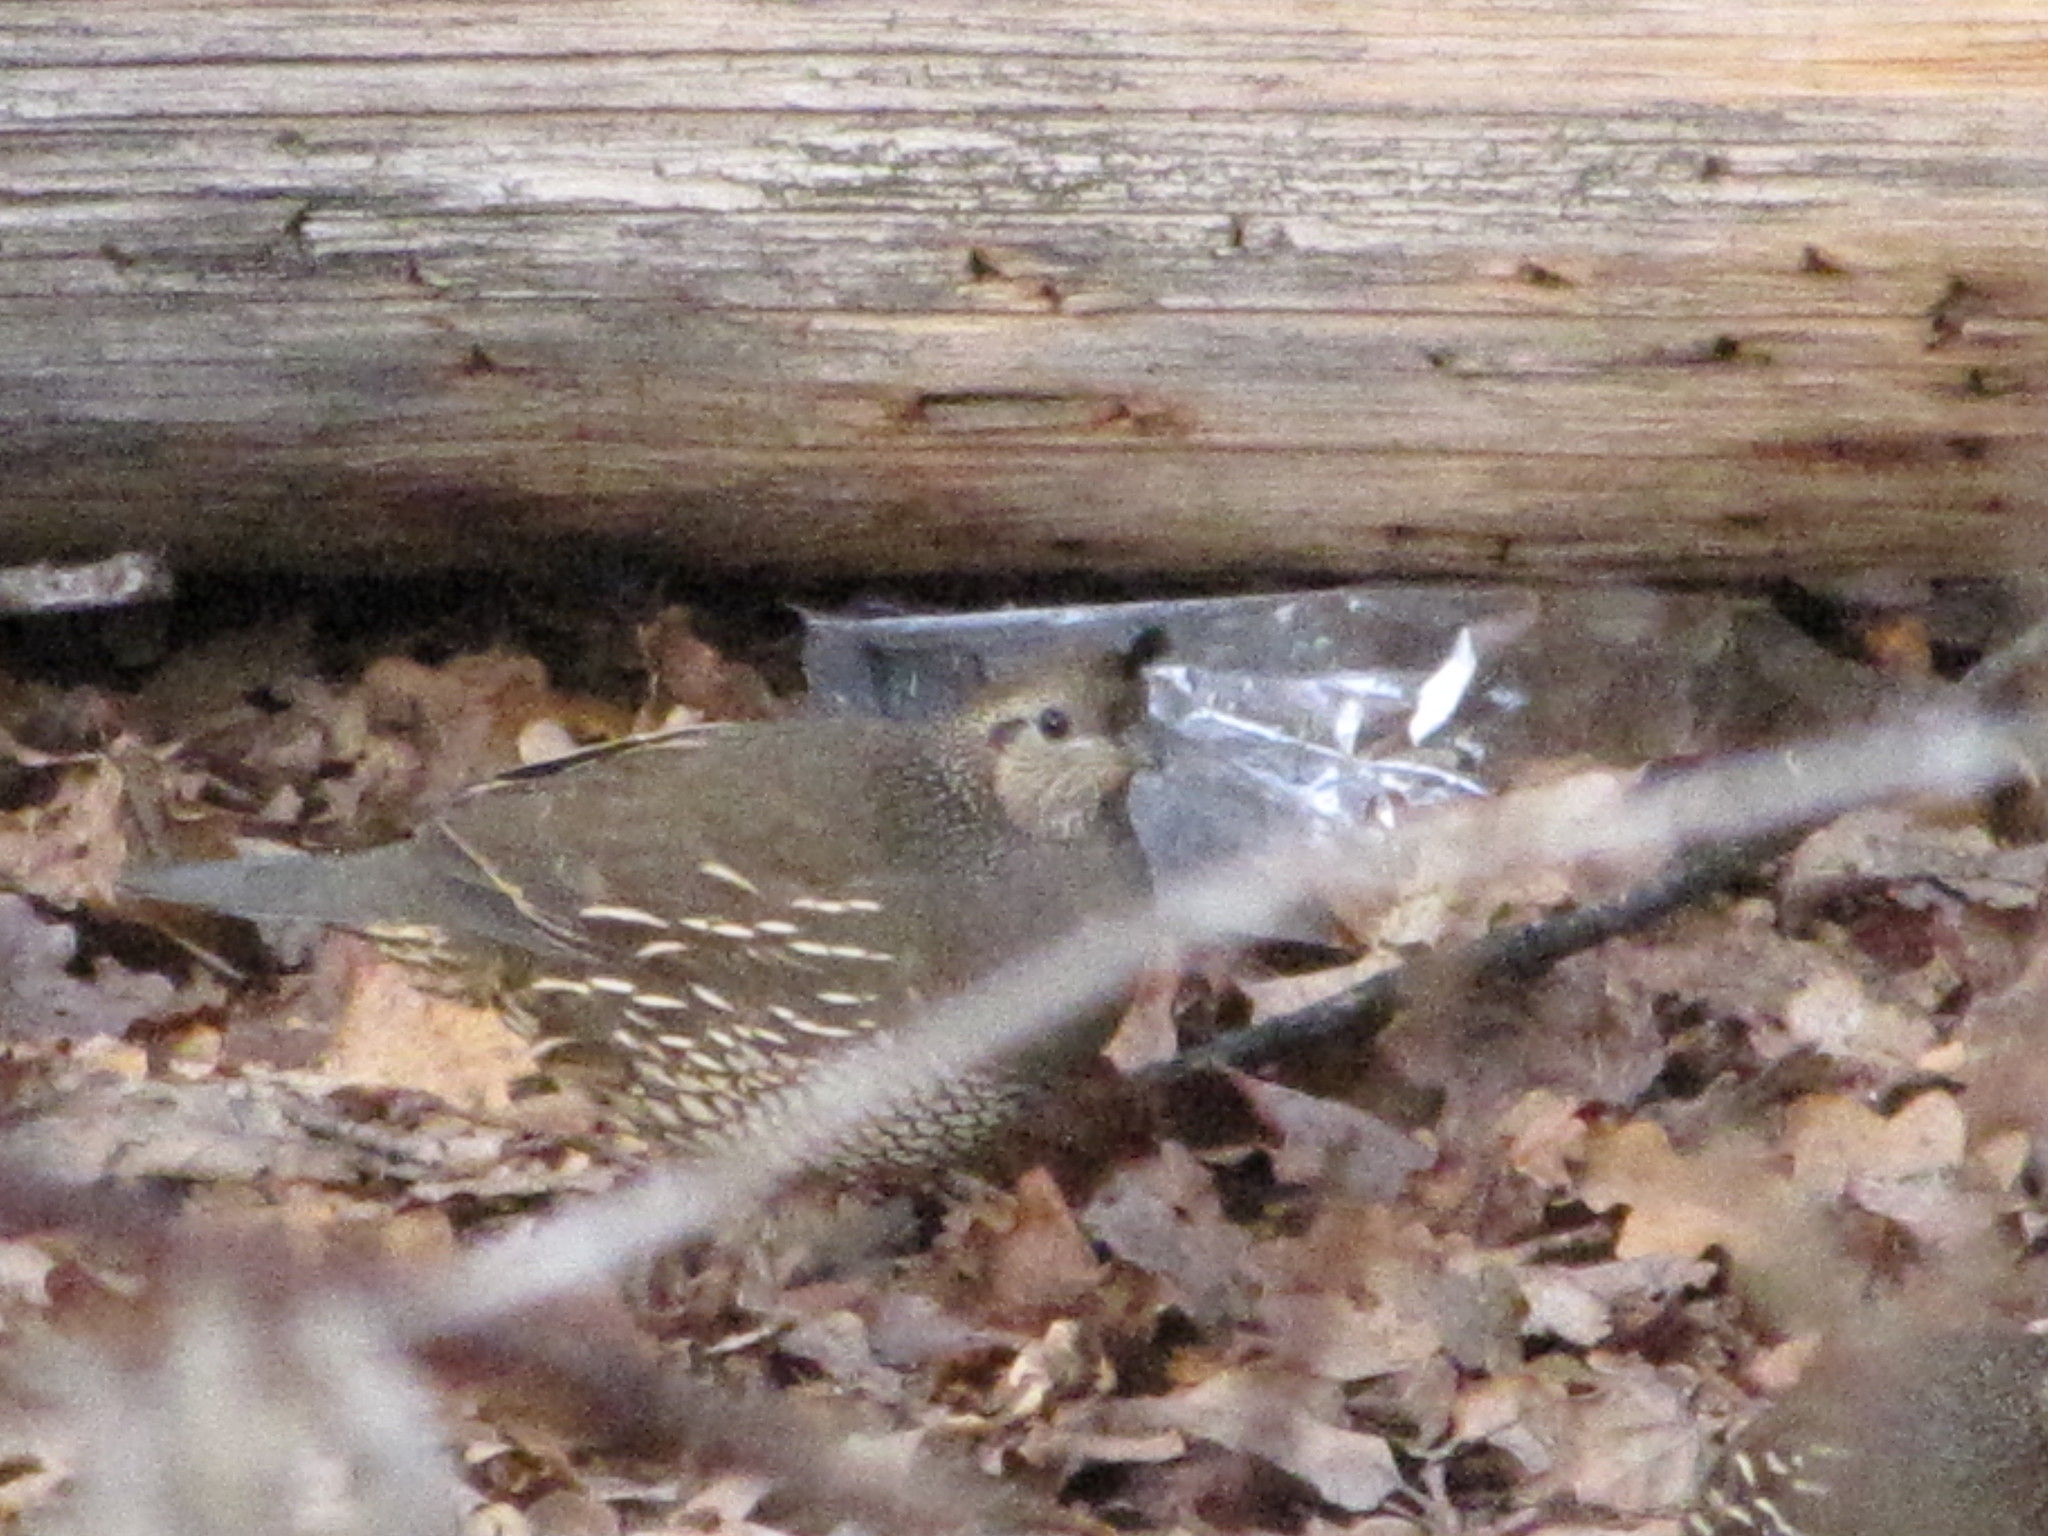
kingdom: Animalia
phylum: Chordata
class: Aves
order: Galliformes
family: Odontophoridae
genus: Callipepla
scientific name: Callipepla californica
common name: California quail
